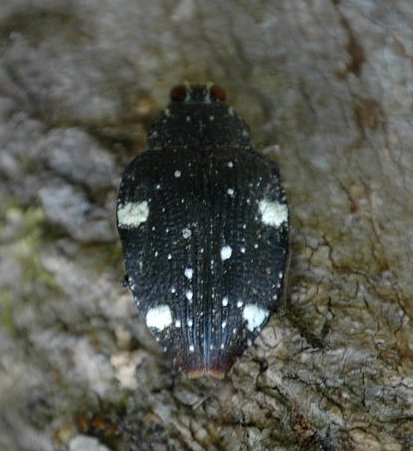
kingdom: Animalia
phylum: Arthropoda
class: Insecta
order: Coleoptera
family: Buprestidae
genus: Polybothris
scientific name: Polybothris auropicta
